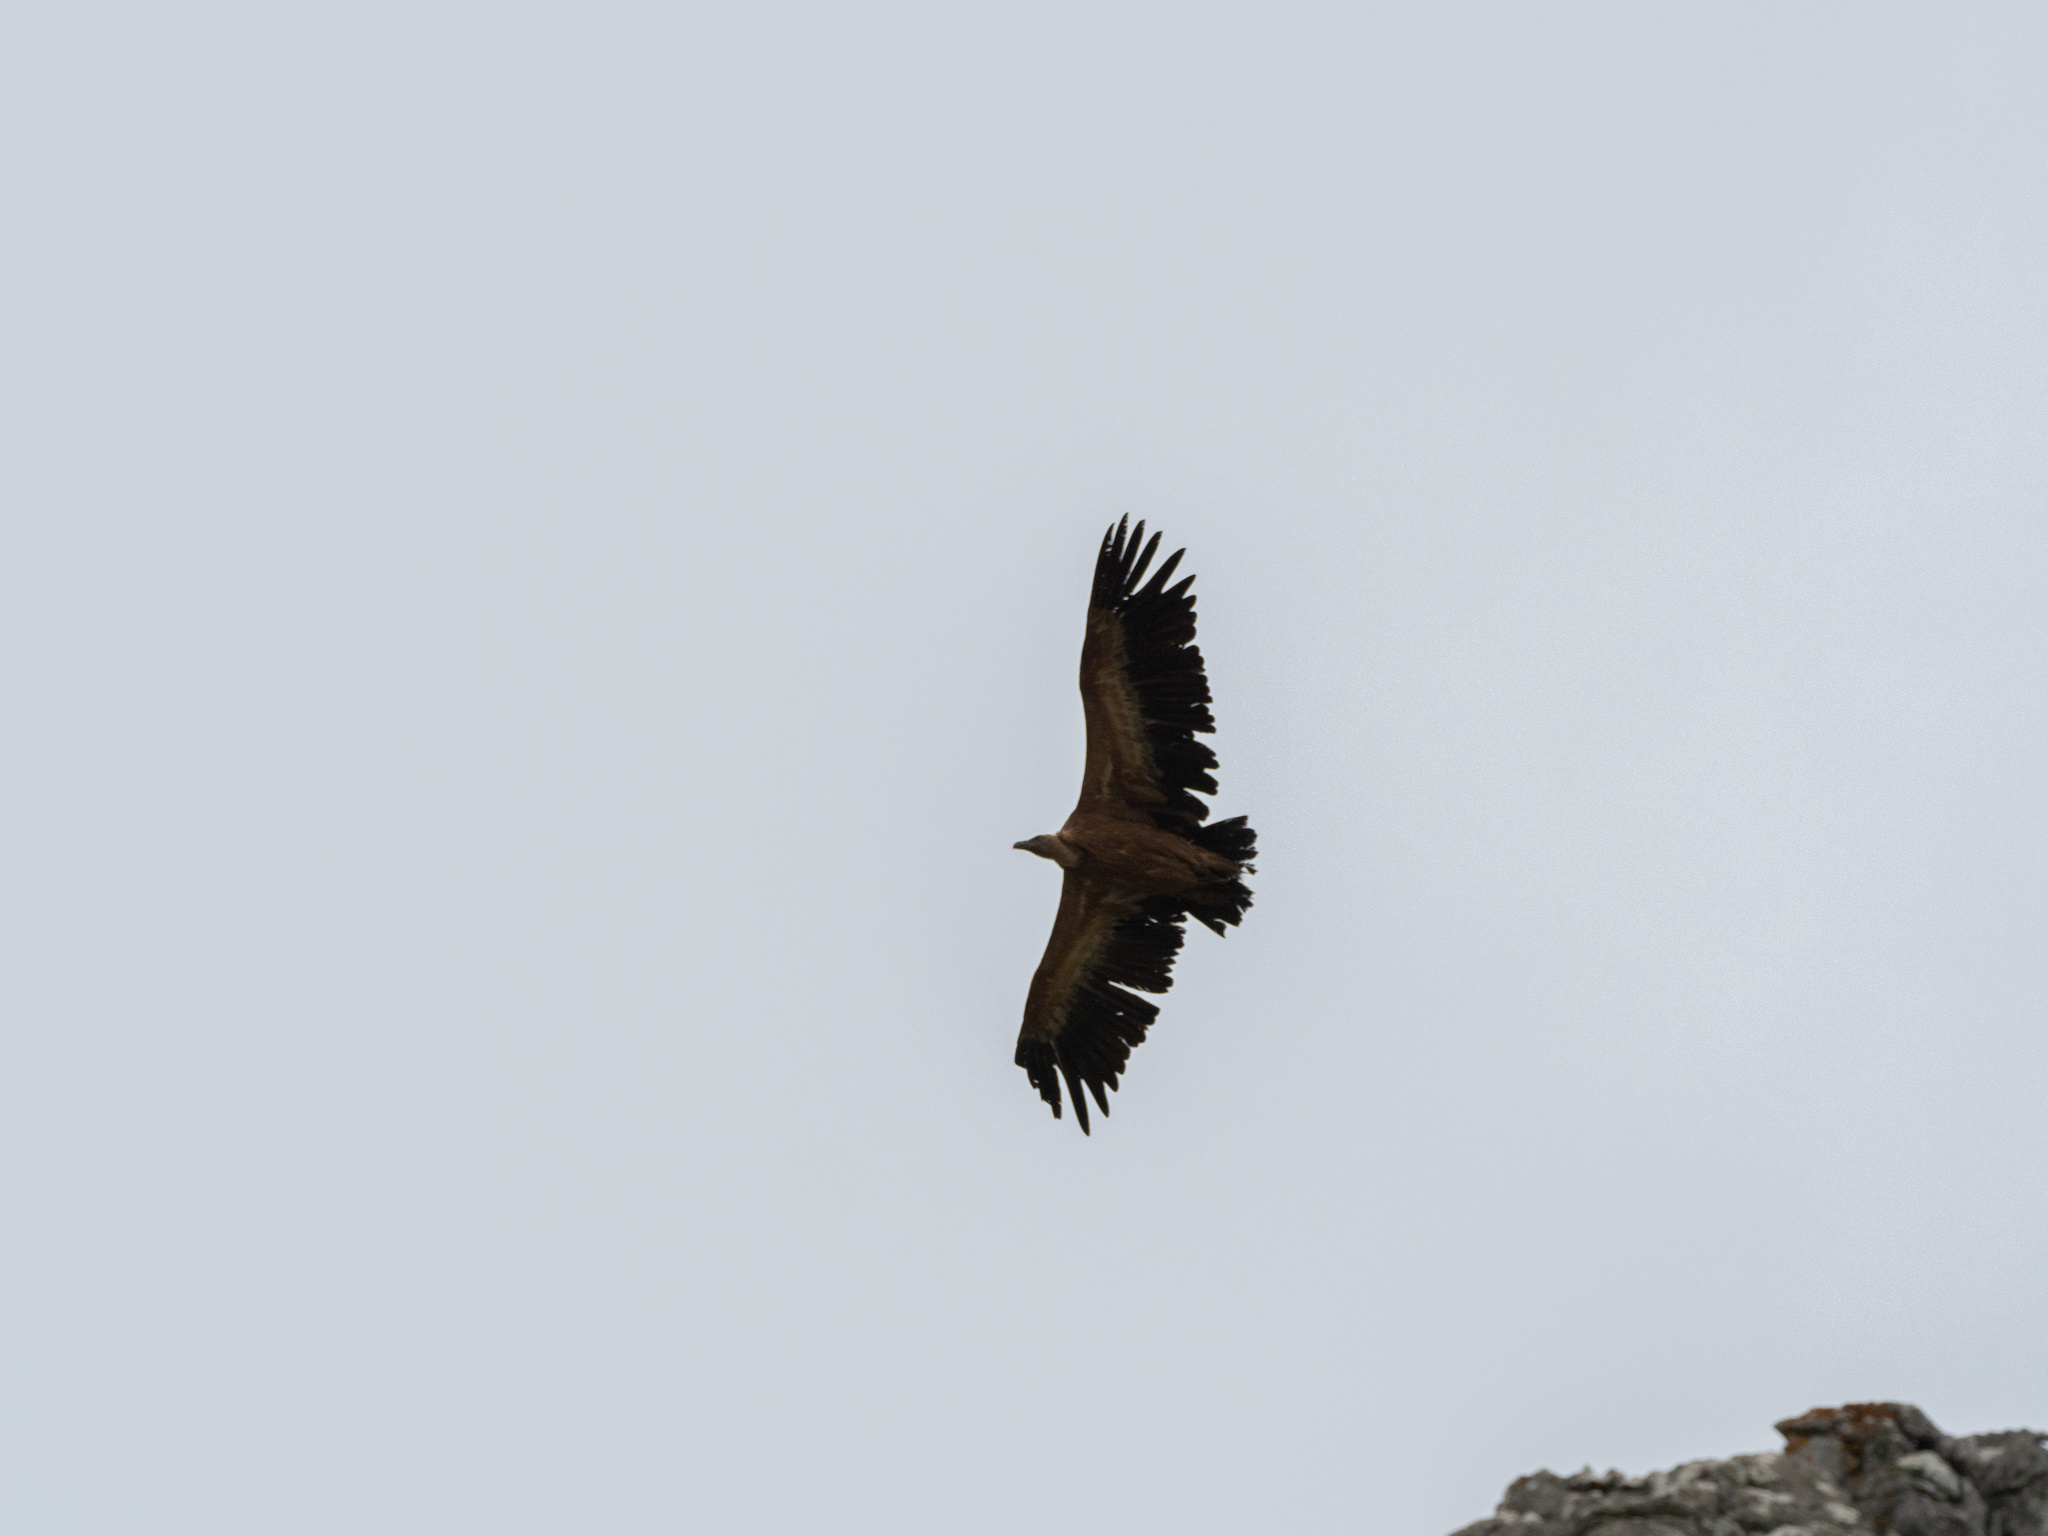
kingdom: Animalia
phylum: Chordata
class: Aves
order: Accipitriformes
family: Accipitridae
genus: Gyps
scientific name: Gyps fulvus
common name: Griffon vulture
